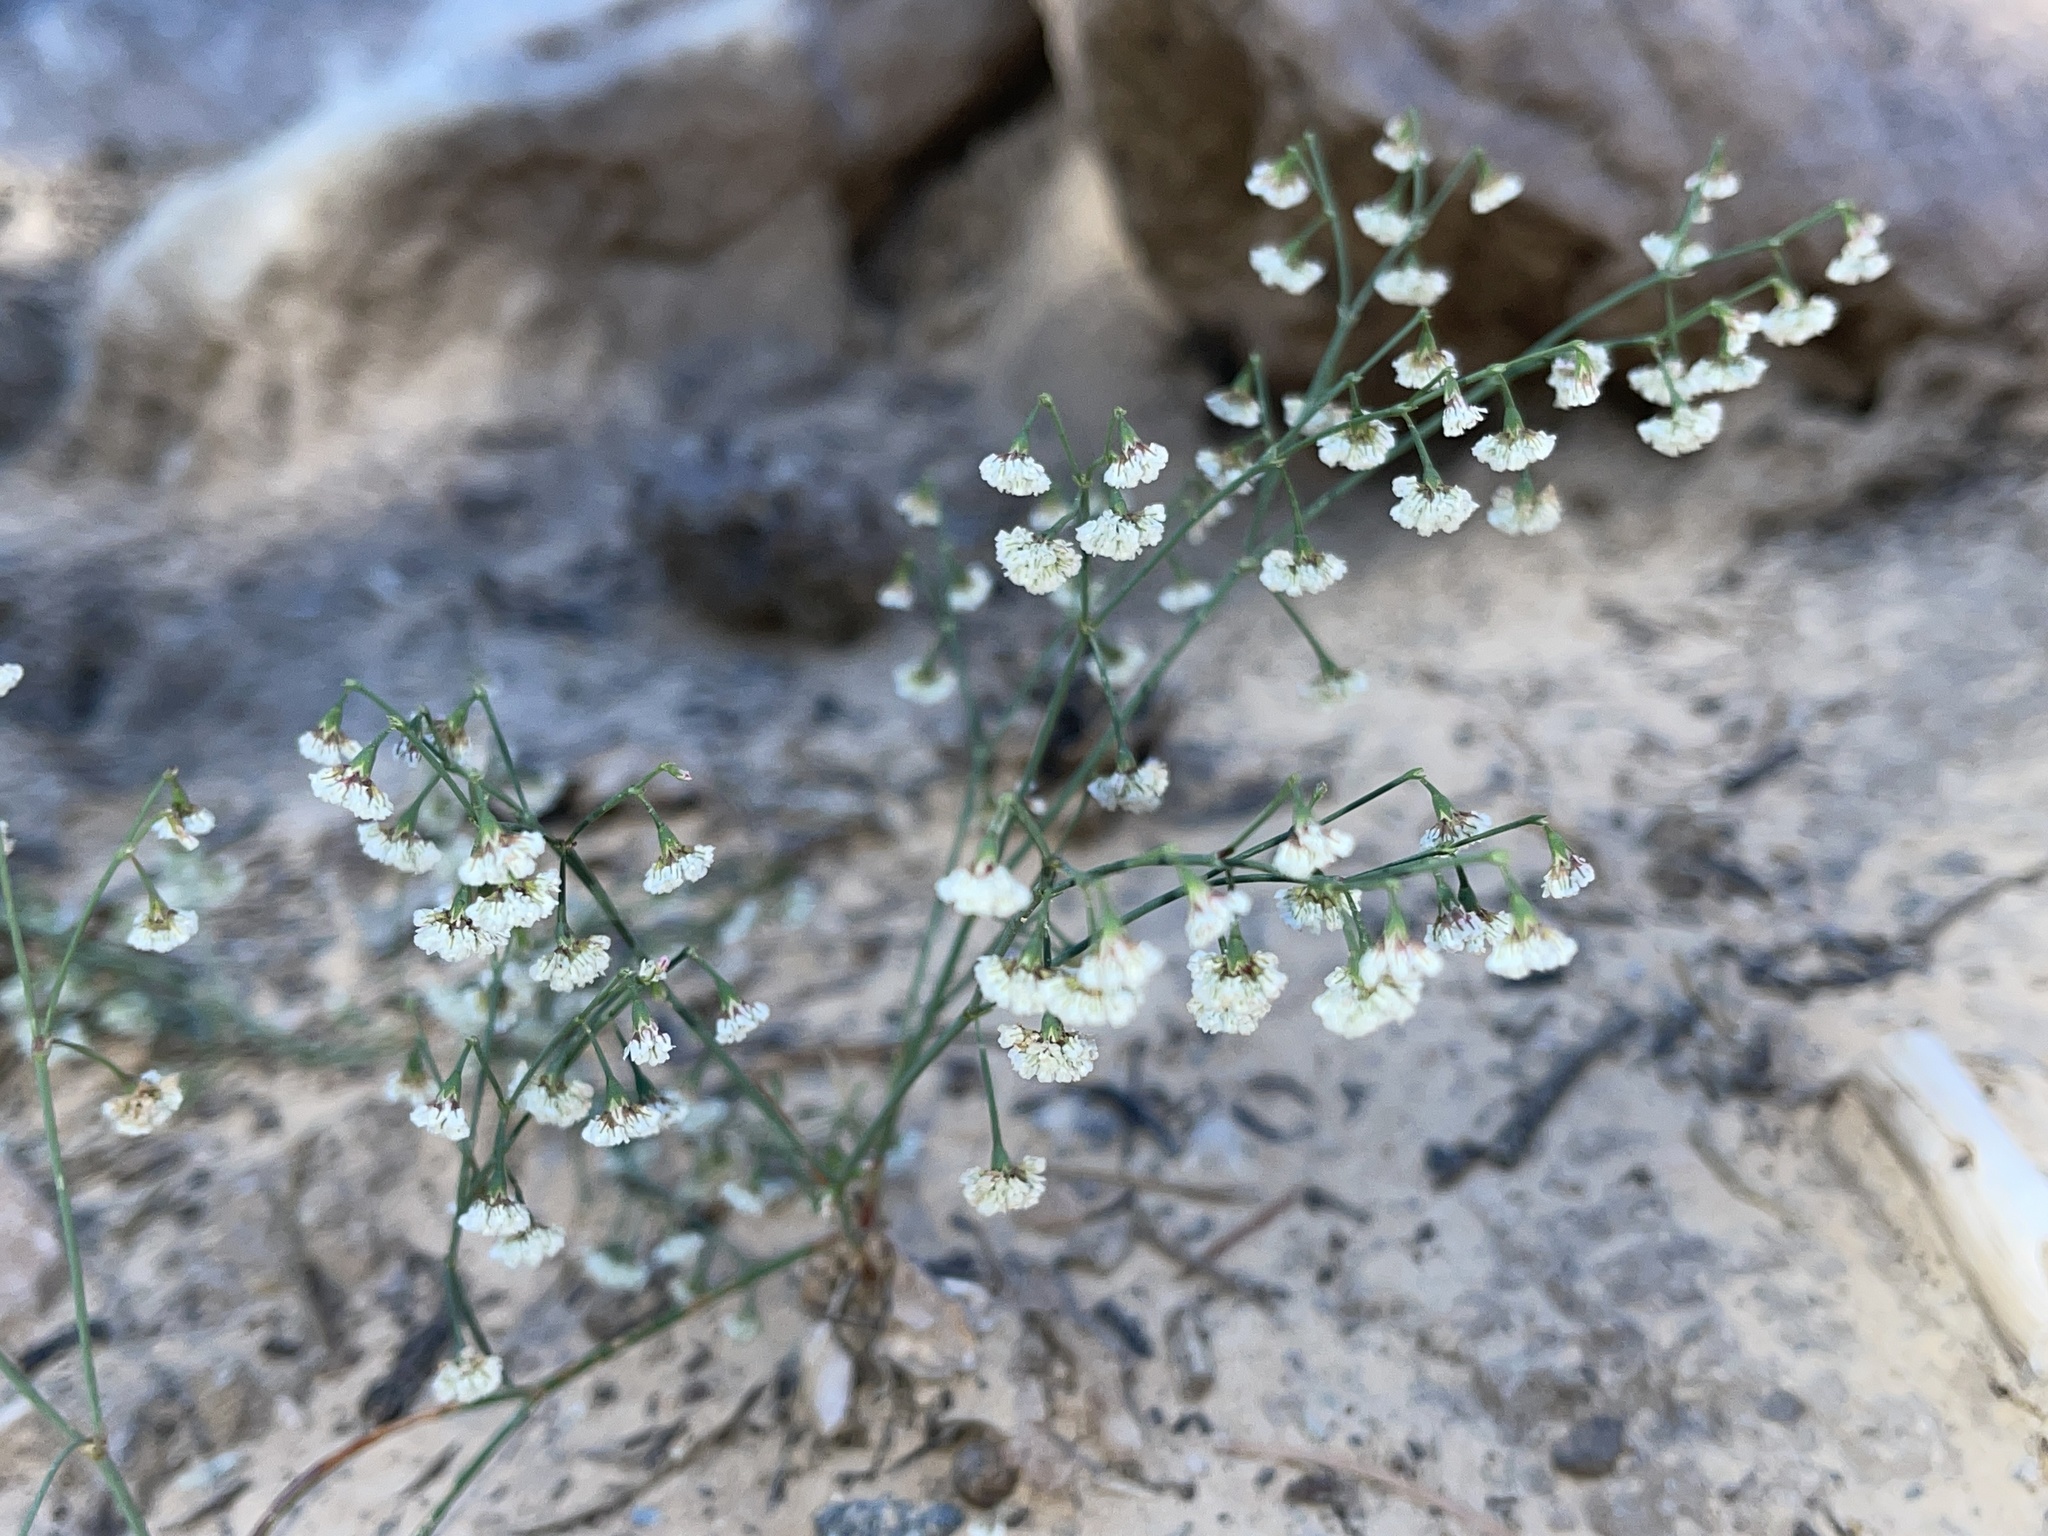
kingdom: Plantae
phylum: Tracheophyta
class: Magnoliopsida
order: Caryophyllales
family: Polygonaceae
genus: Eriogonum
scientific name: Eriogonum cernuum
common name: Nodding wild buckwheat
